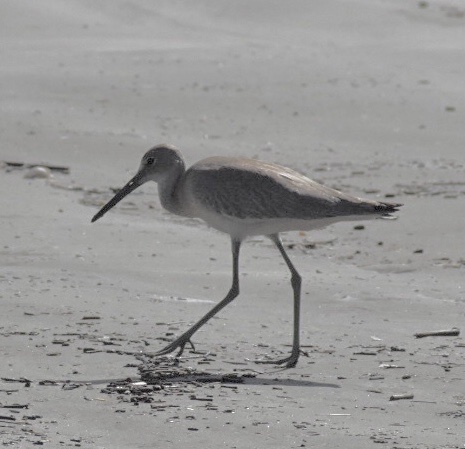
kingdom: Animalia
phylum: Chordata
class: Aves
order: Charadriiformes
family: Scolopacidae
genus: Tringa
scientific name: Tringa semipalmata
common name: Willet
